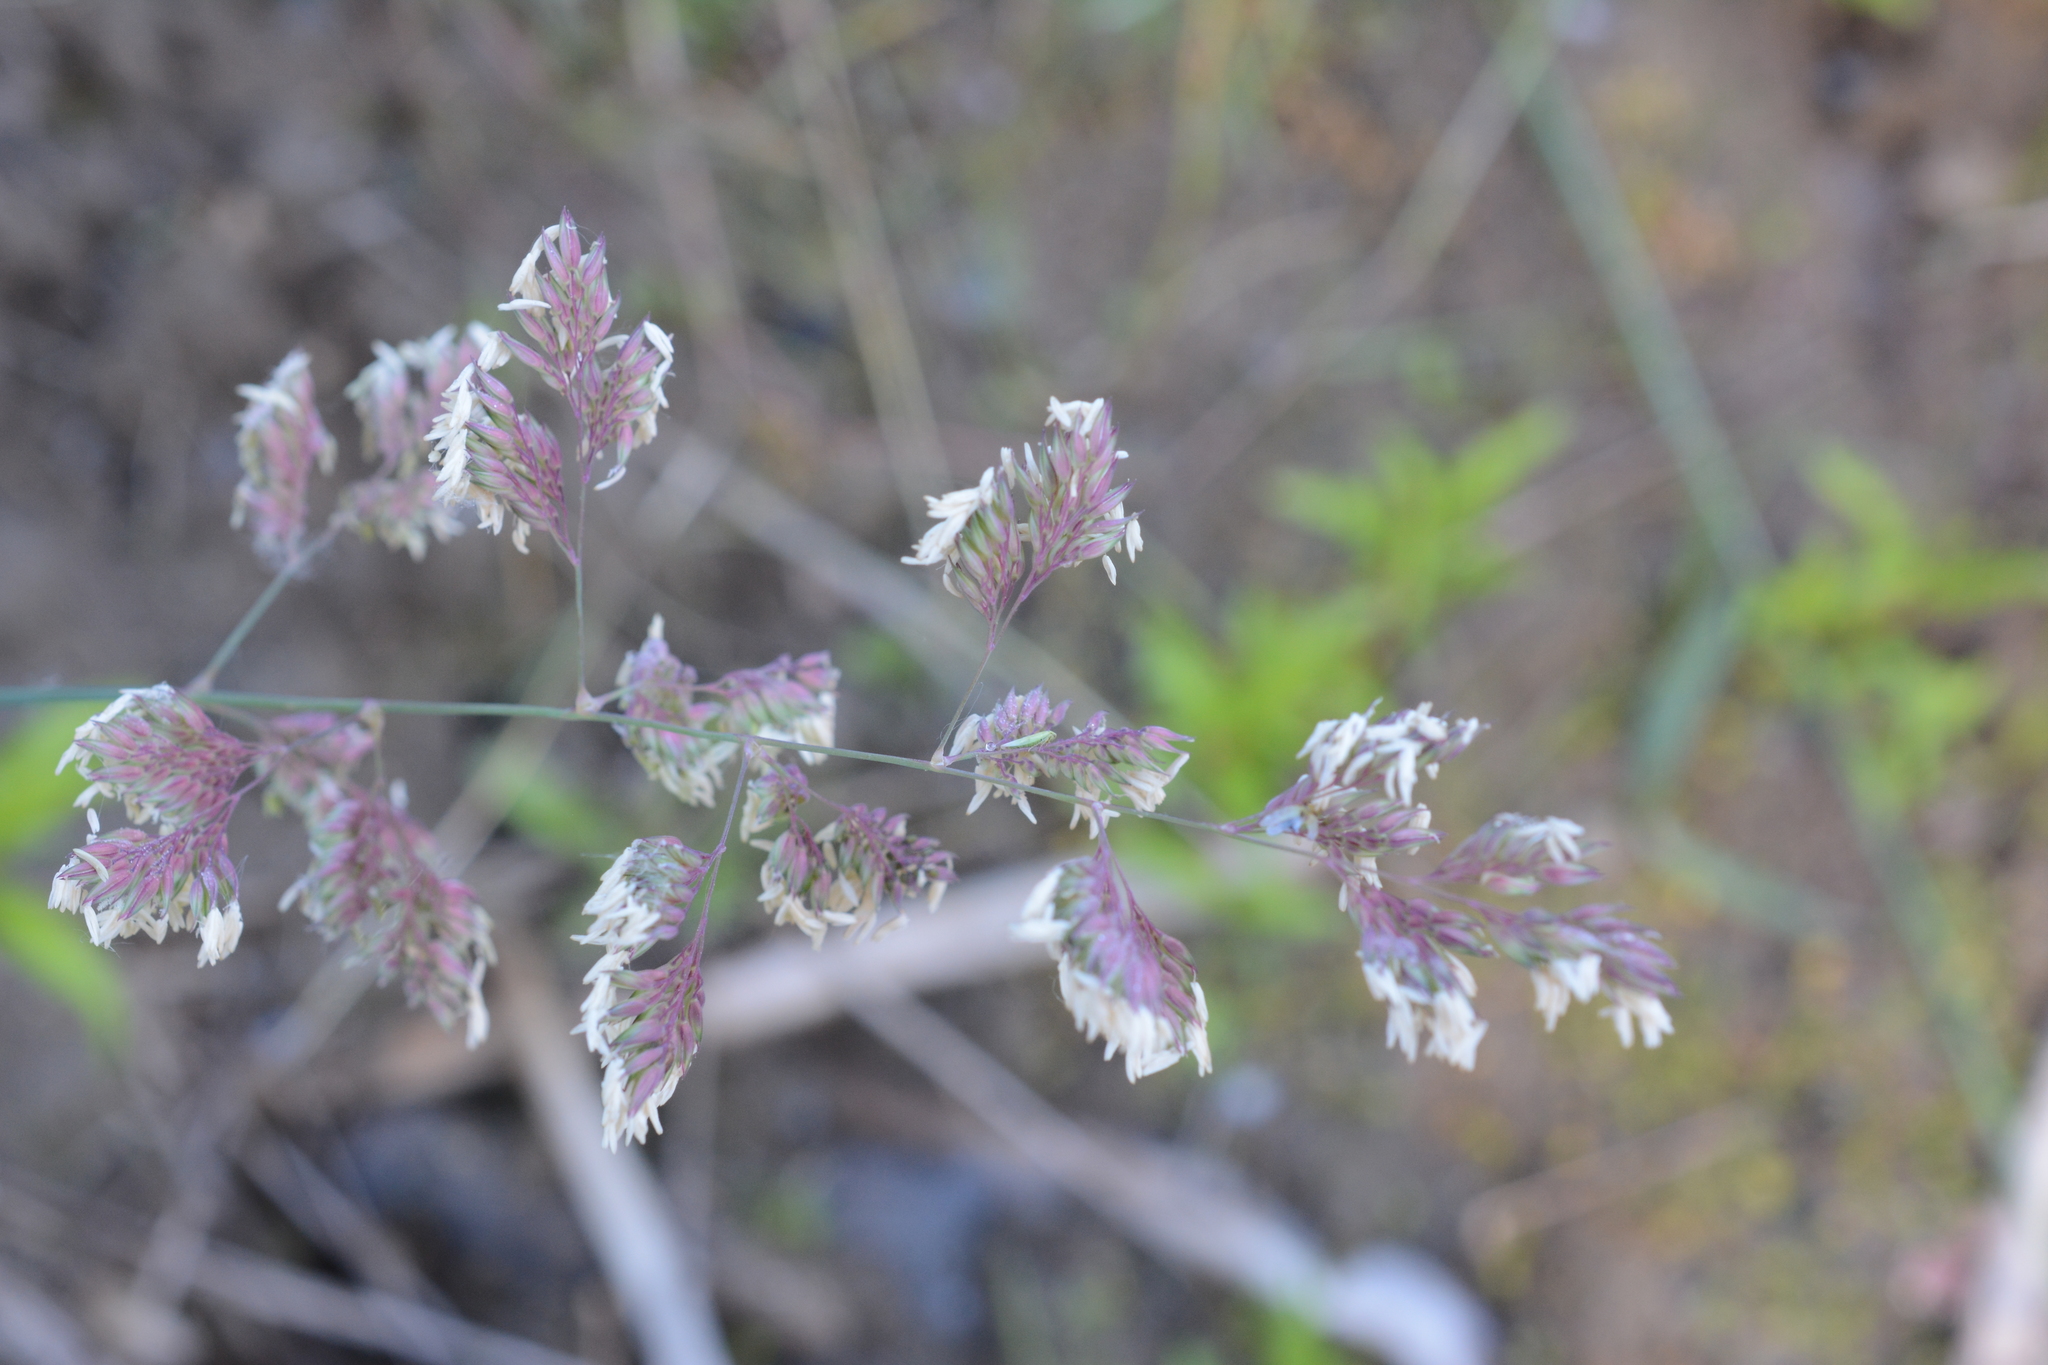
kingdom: Plantae
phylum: Tracheophyta
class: Liliopsida
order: Poales
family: Poaceae
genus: Phalaris
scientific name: Phalaris arundinacea
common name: Reed canary-grass
